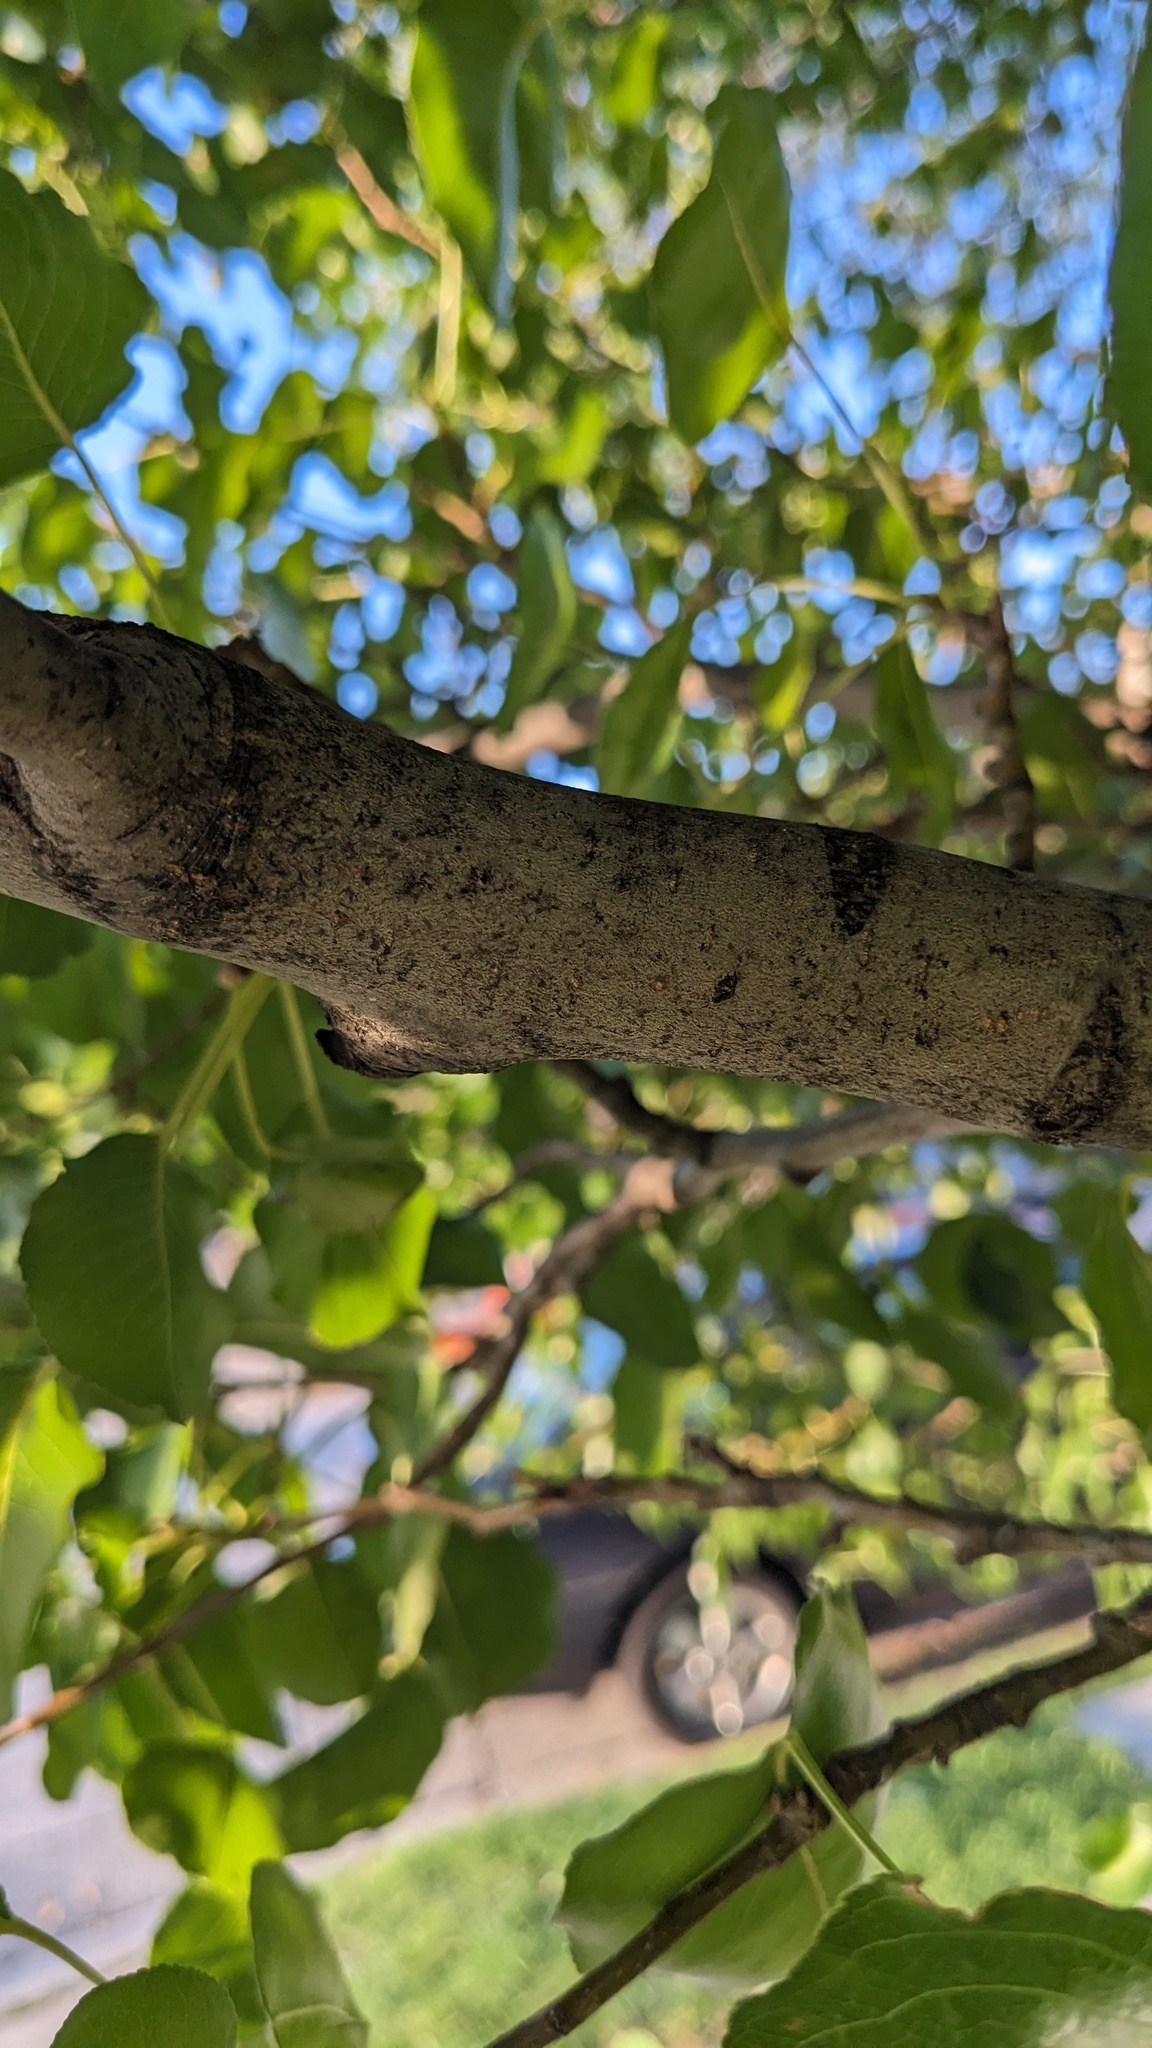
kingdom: Fungi
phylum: Basidiomycota
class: Pucciniomycetes
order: Pucciniales
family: Gymnosporangiaceae
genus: Gymnosporangium
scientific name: Gymnosporangium sabinae
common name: Pear trellis rust fungus
